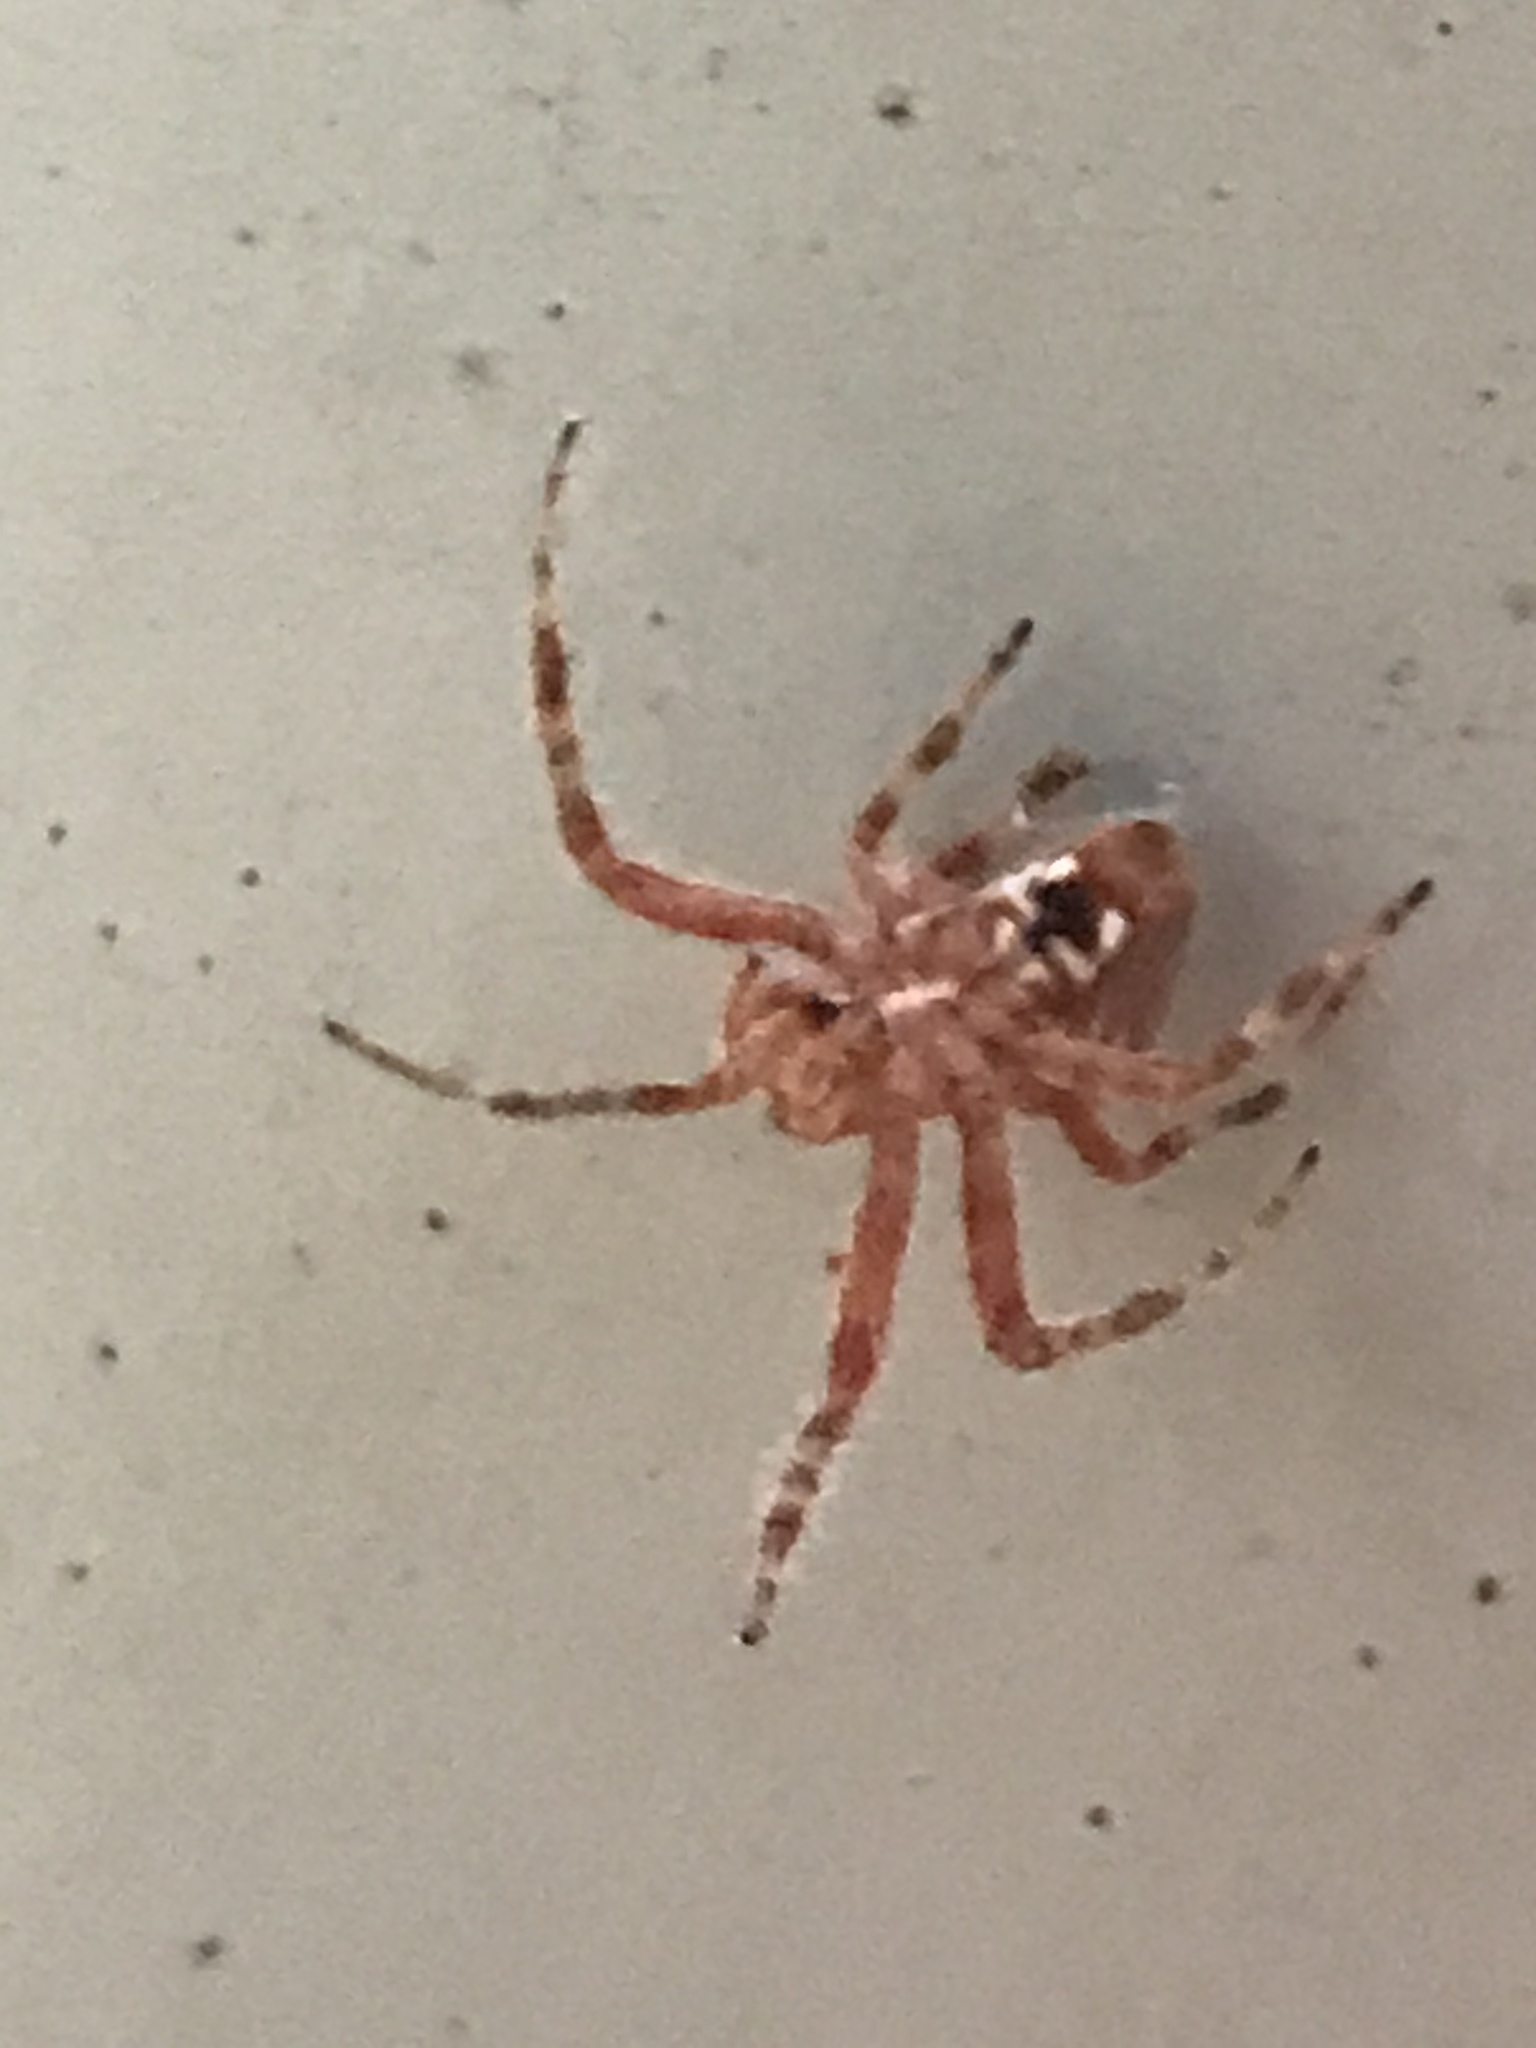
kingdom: Animalia
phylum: Arthropoda
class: Arachnida
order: Araneae
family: Araneidae
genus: Neoscona
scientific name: Neoscona crucifera
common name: Spotted orbweaver
